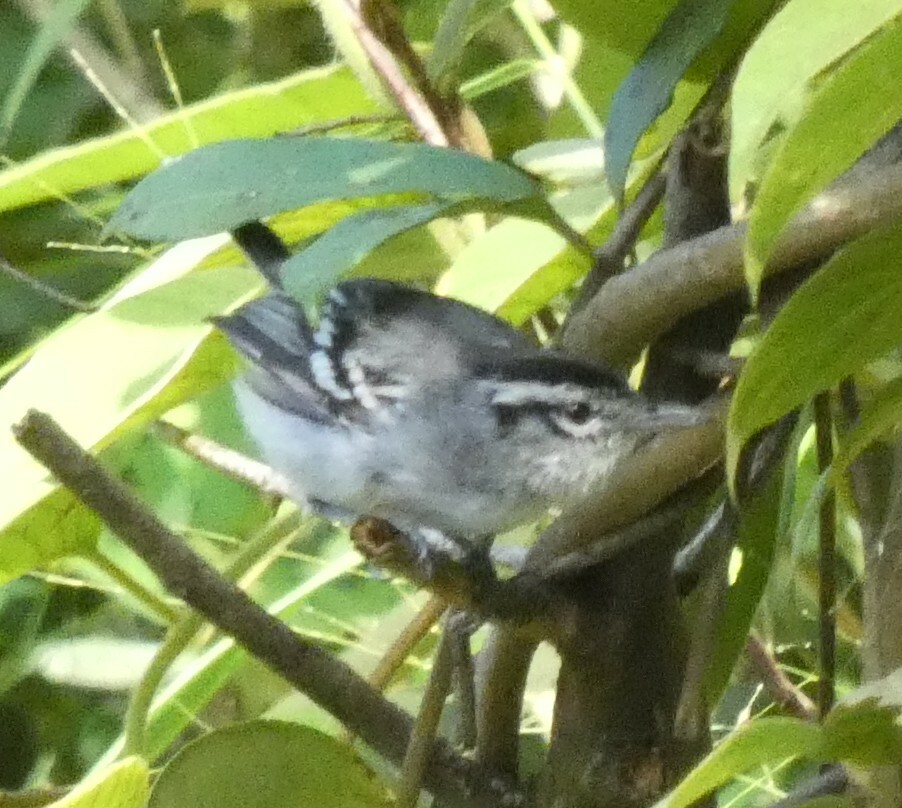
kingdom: Animalia
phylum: Chordata
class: Aves
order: Passeriformes
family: Thamnophilidae
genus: Herpsilochmus
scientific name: Herpsilochmus atricapillus
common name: Black-capped antwren
